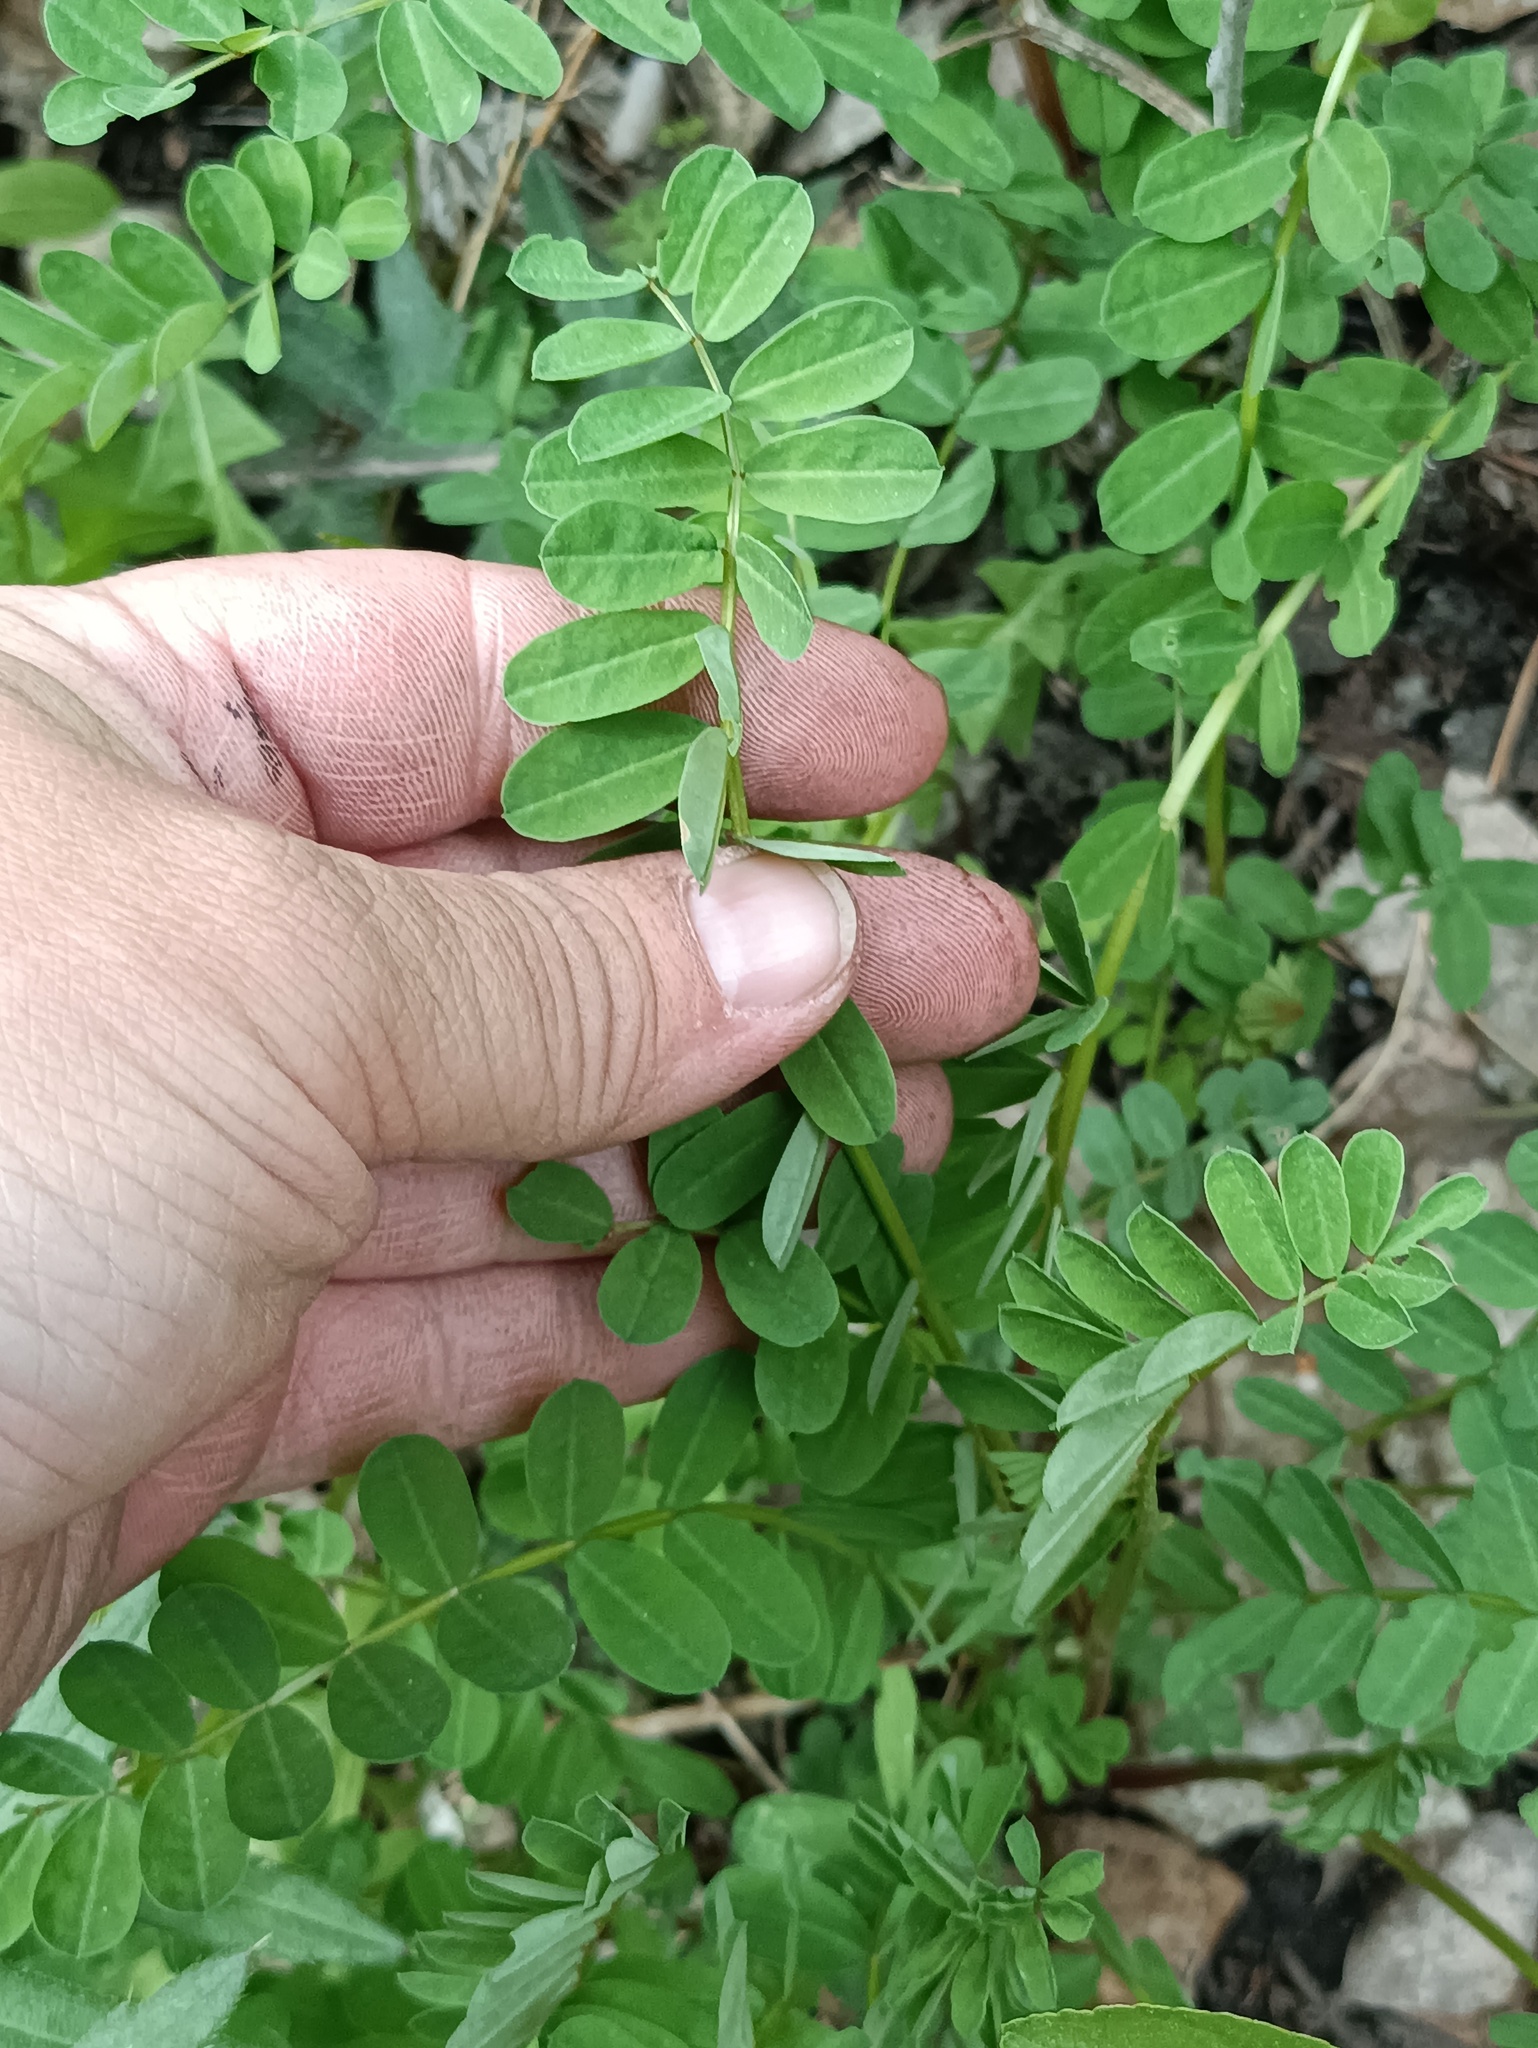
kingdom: Plantae
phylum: Tracheophyta
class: Magnoliopsida
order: Fabales
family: Fabaceae
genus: Coronilla
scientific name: Coronilla varia
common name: Crownvetch
